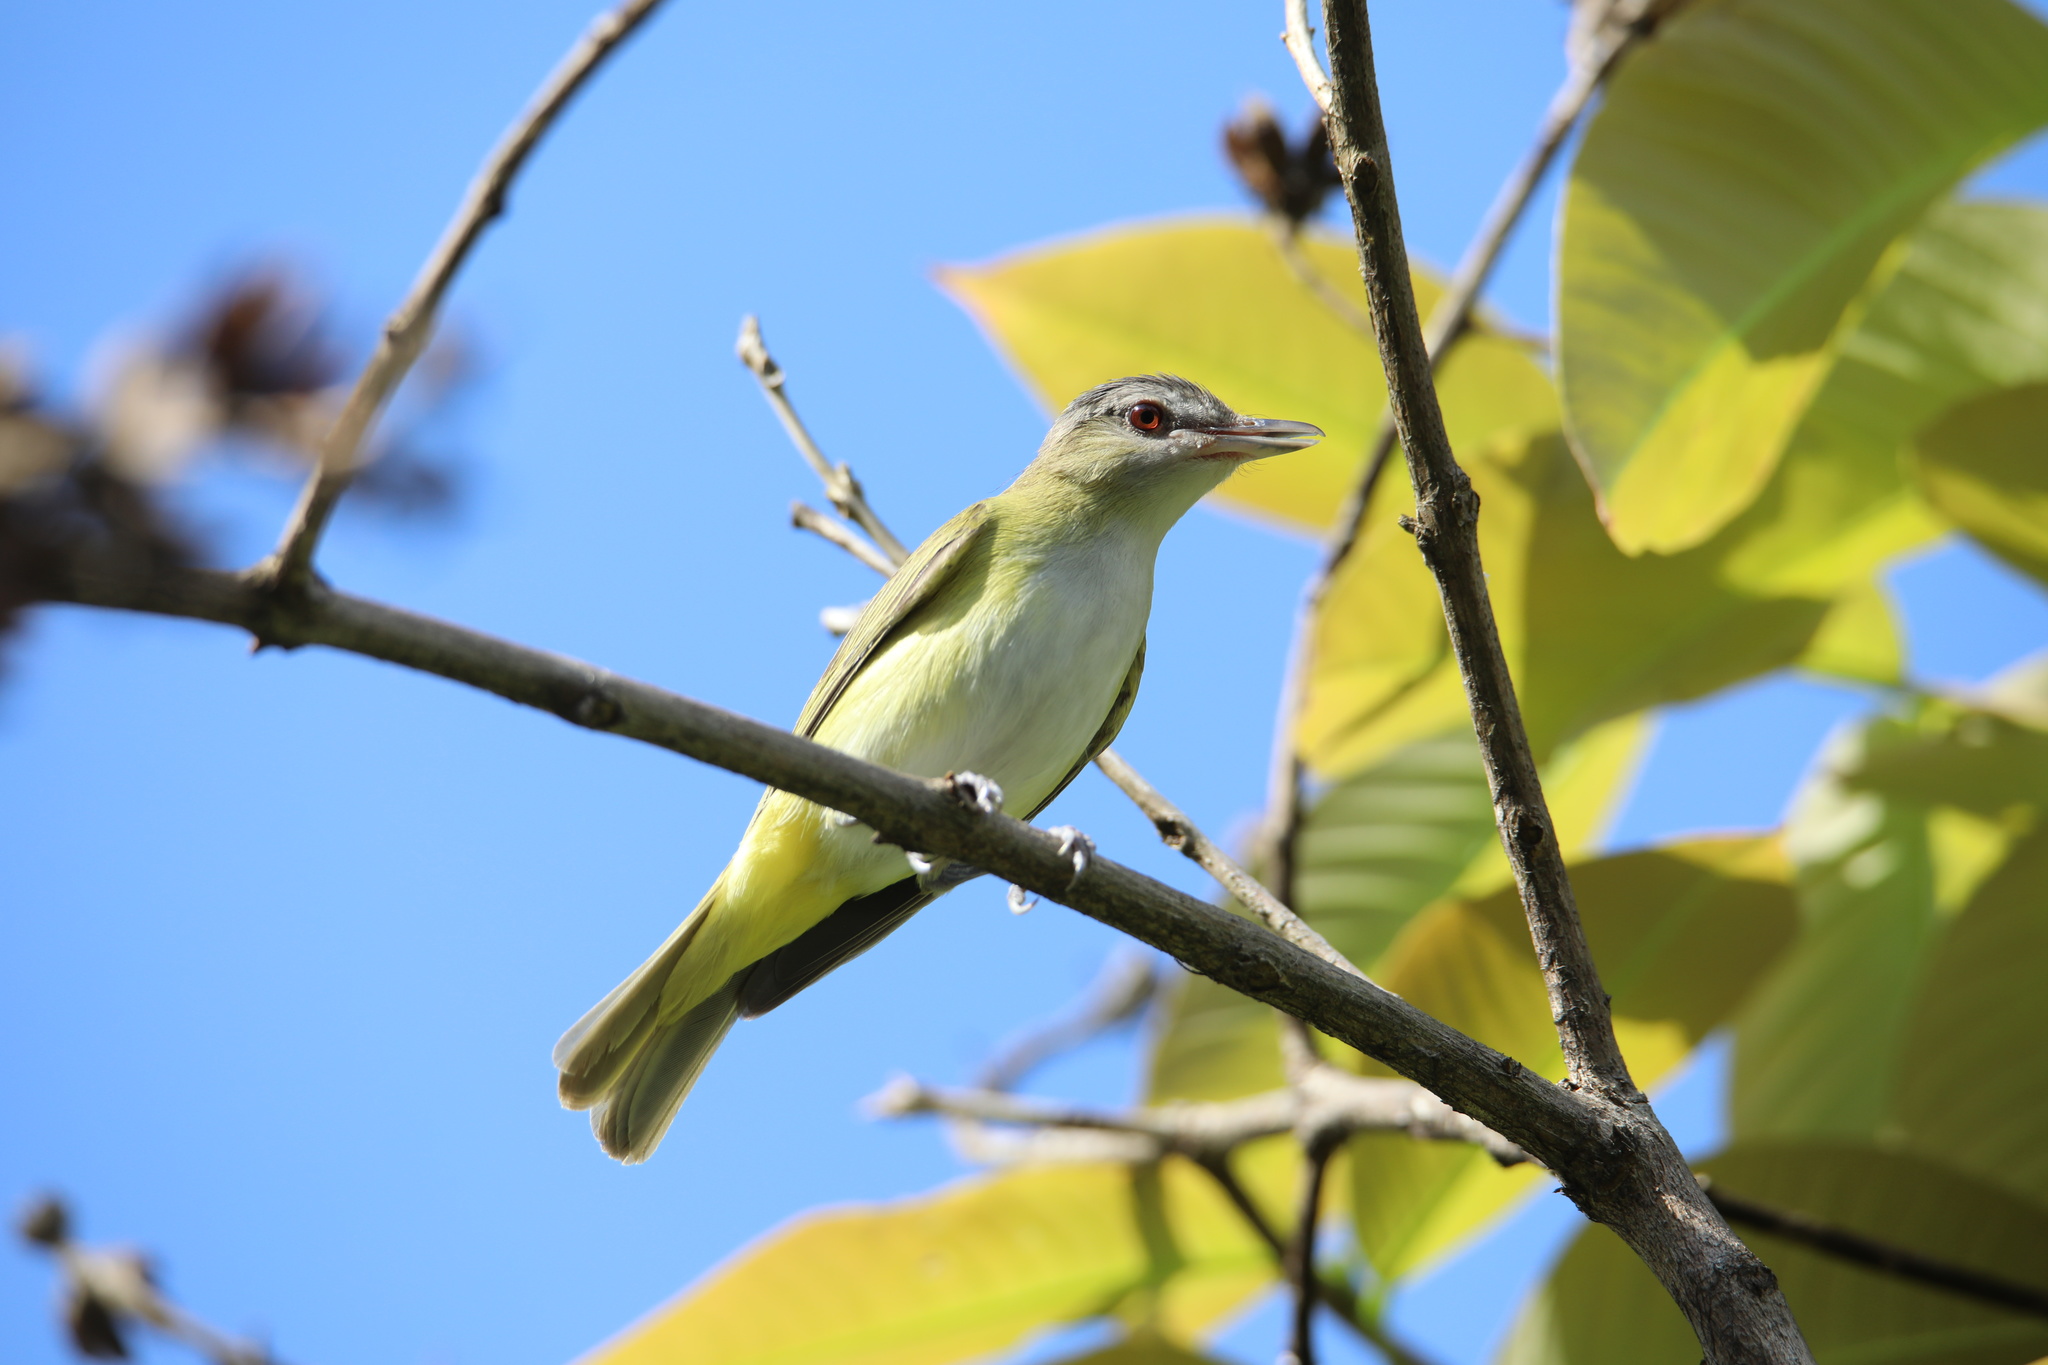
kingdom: Animalia
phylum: Chordata
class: Aves
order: Passeriformes
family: Vireonidae
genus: Vireo
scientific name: Vireo flavoviridis
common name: Yellow-green vireo
